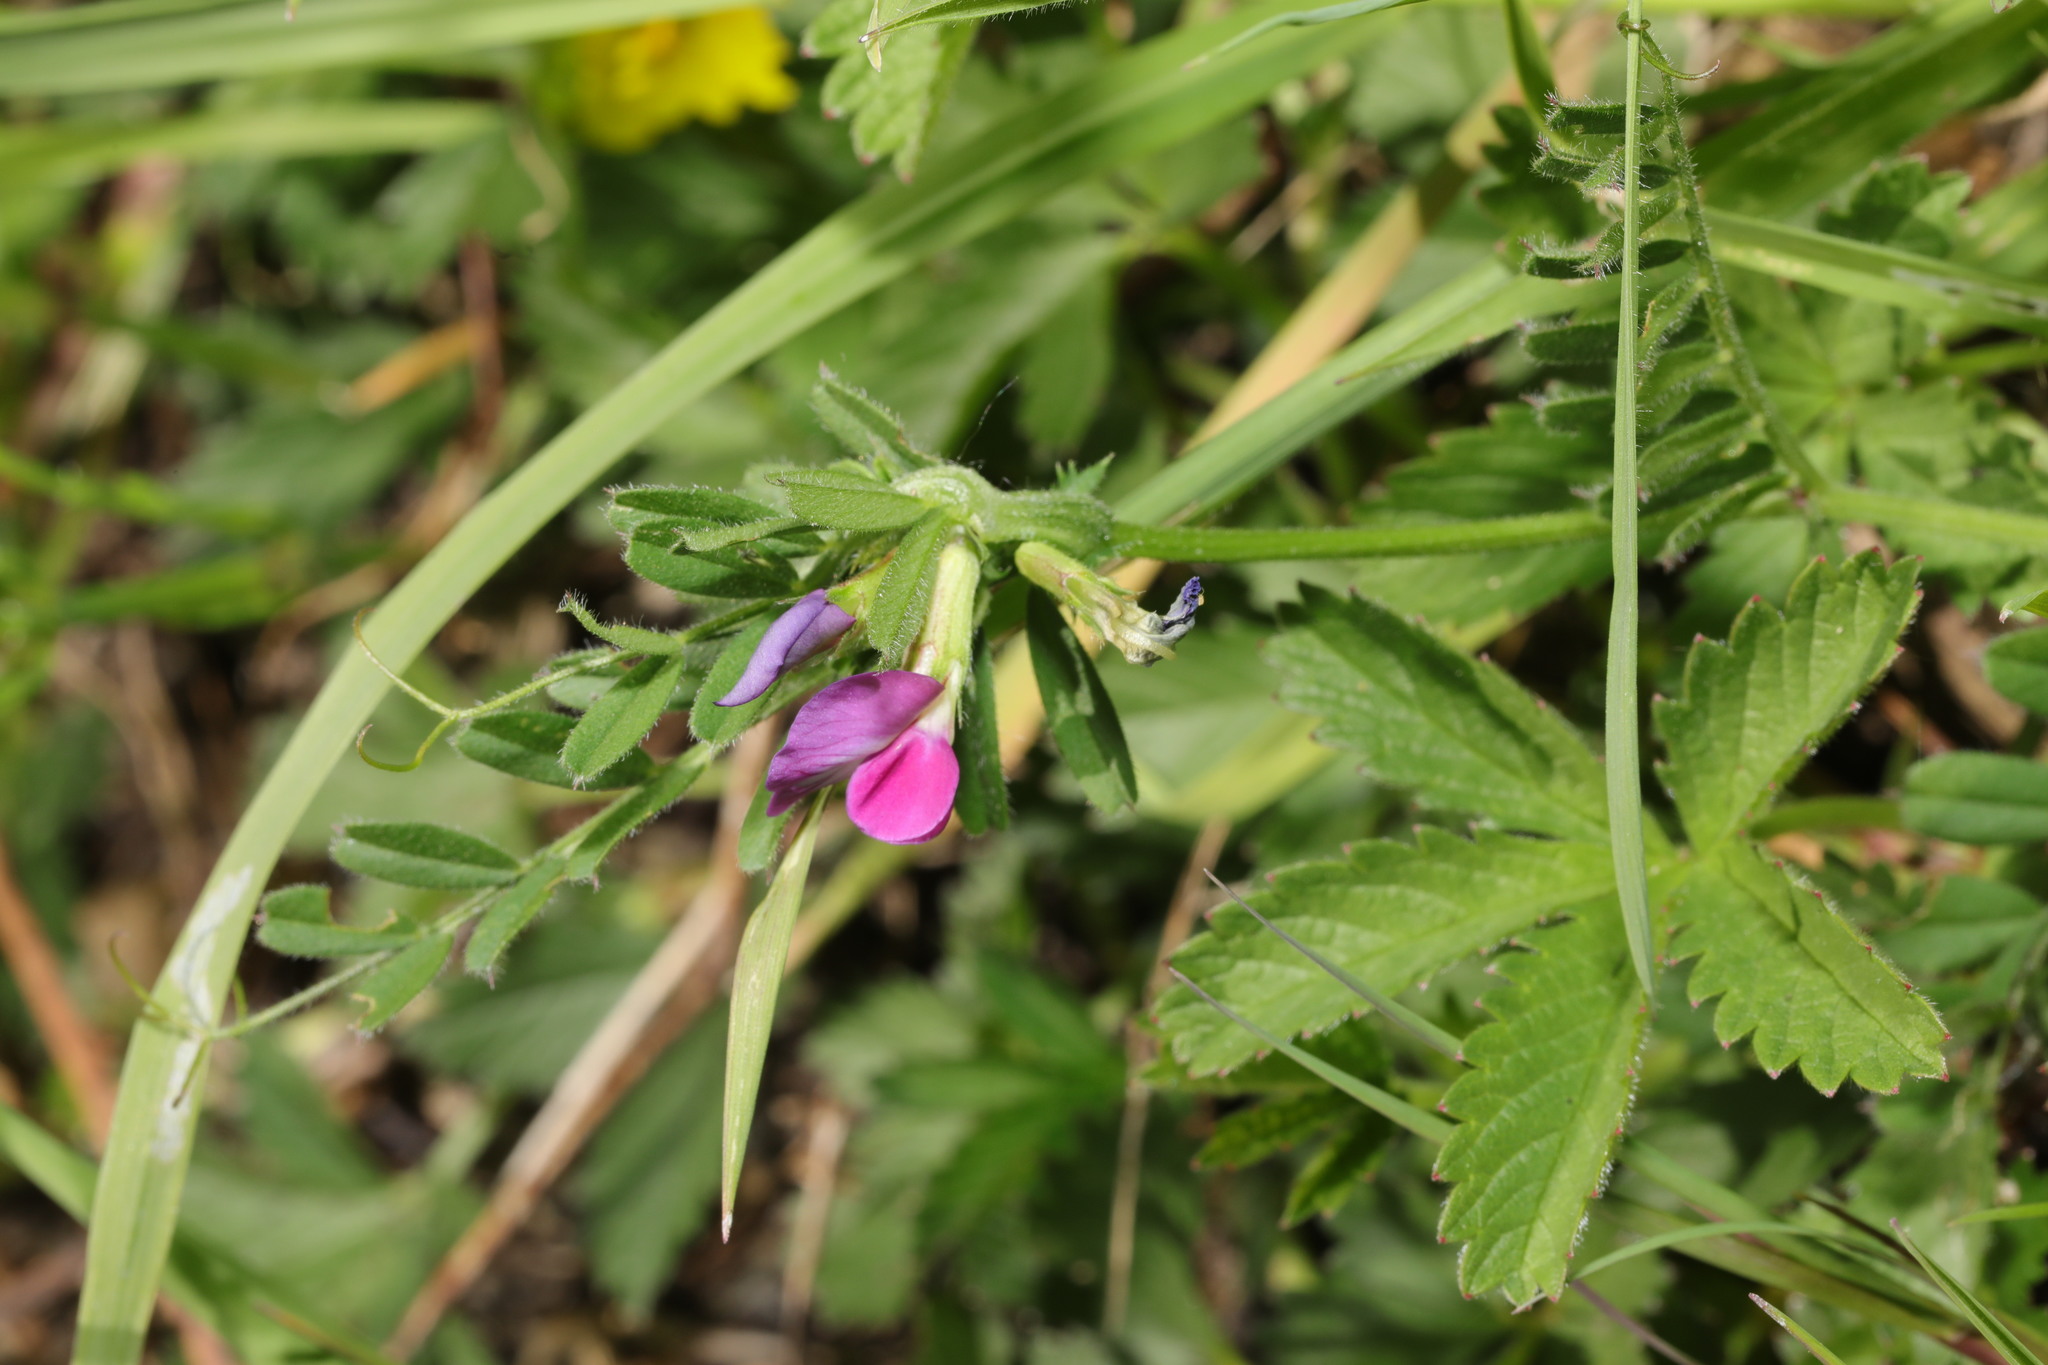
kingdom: Plantae
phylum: Tracheophyta
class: Magnoliopsida
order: Fabales
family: Fabaceae
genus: Vicia
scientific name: Vicia sativa
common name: Garden vetch
